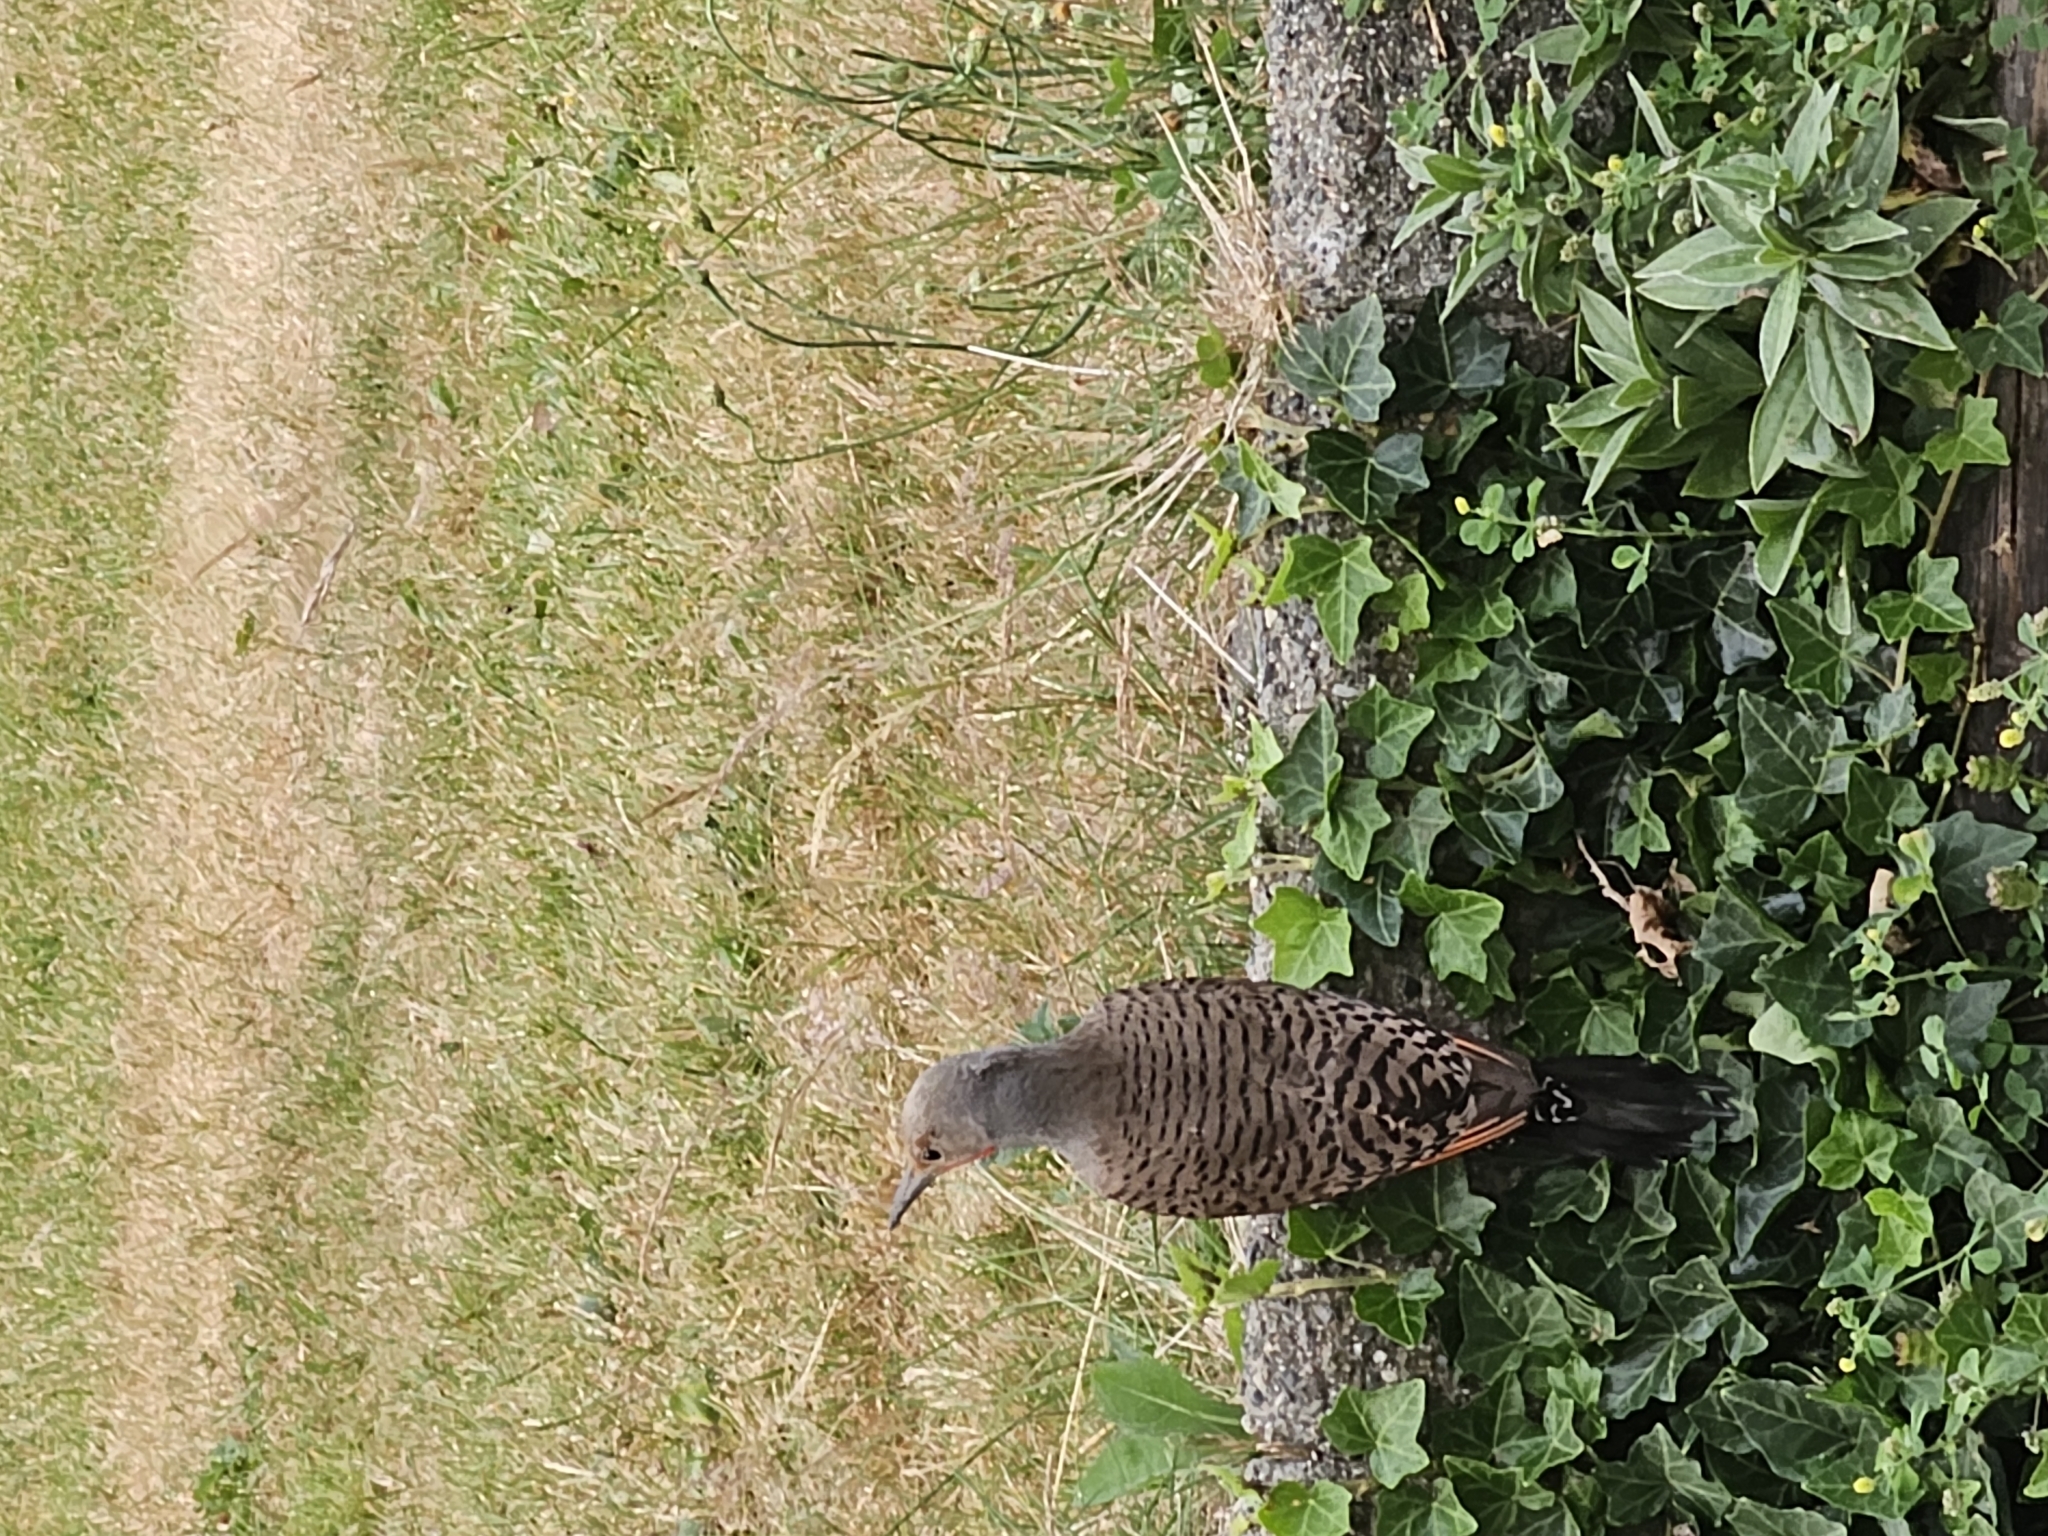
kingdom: Animalia
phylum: Chordata
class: Aves
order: Piciformes
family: Picidae
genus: Colaptes
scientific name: Colaptes auratus
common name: Northern flicker
